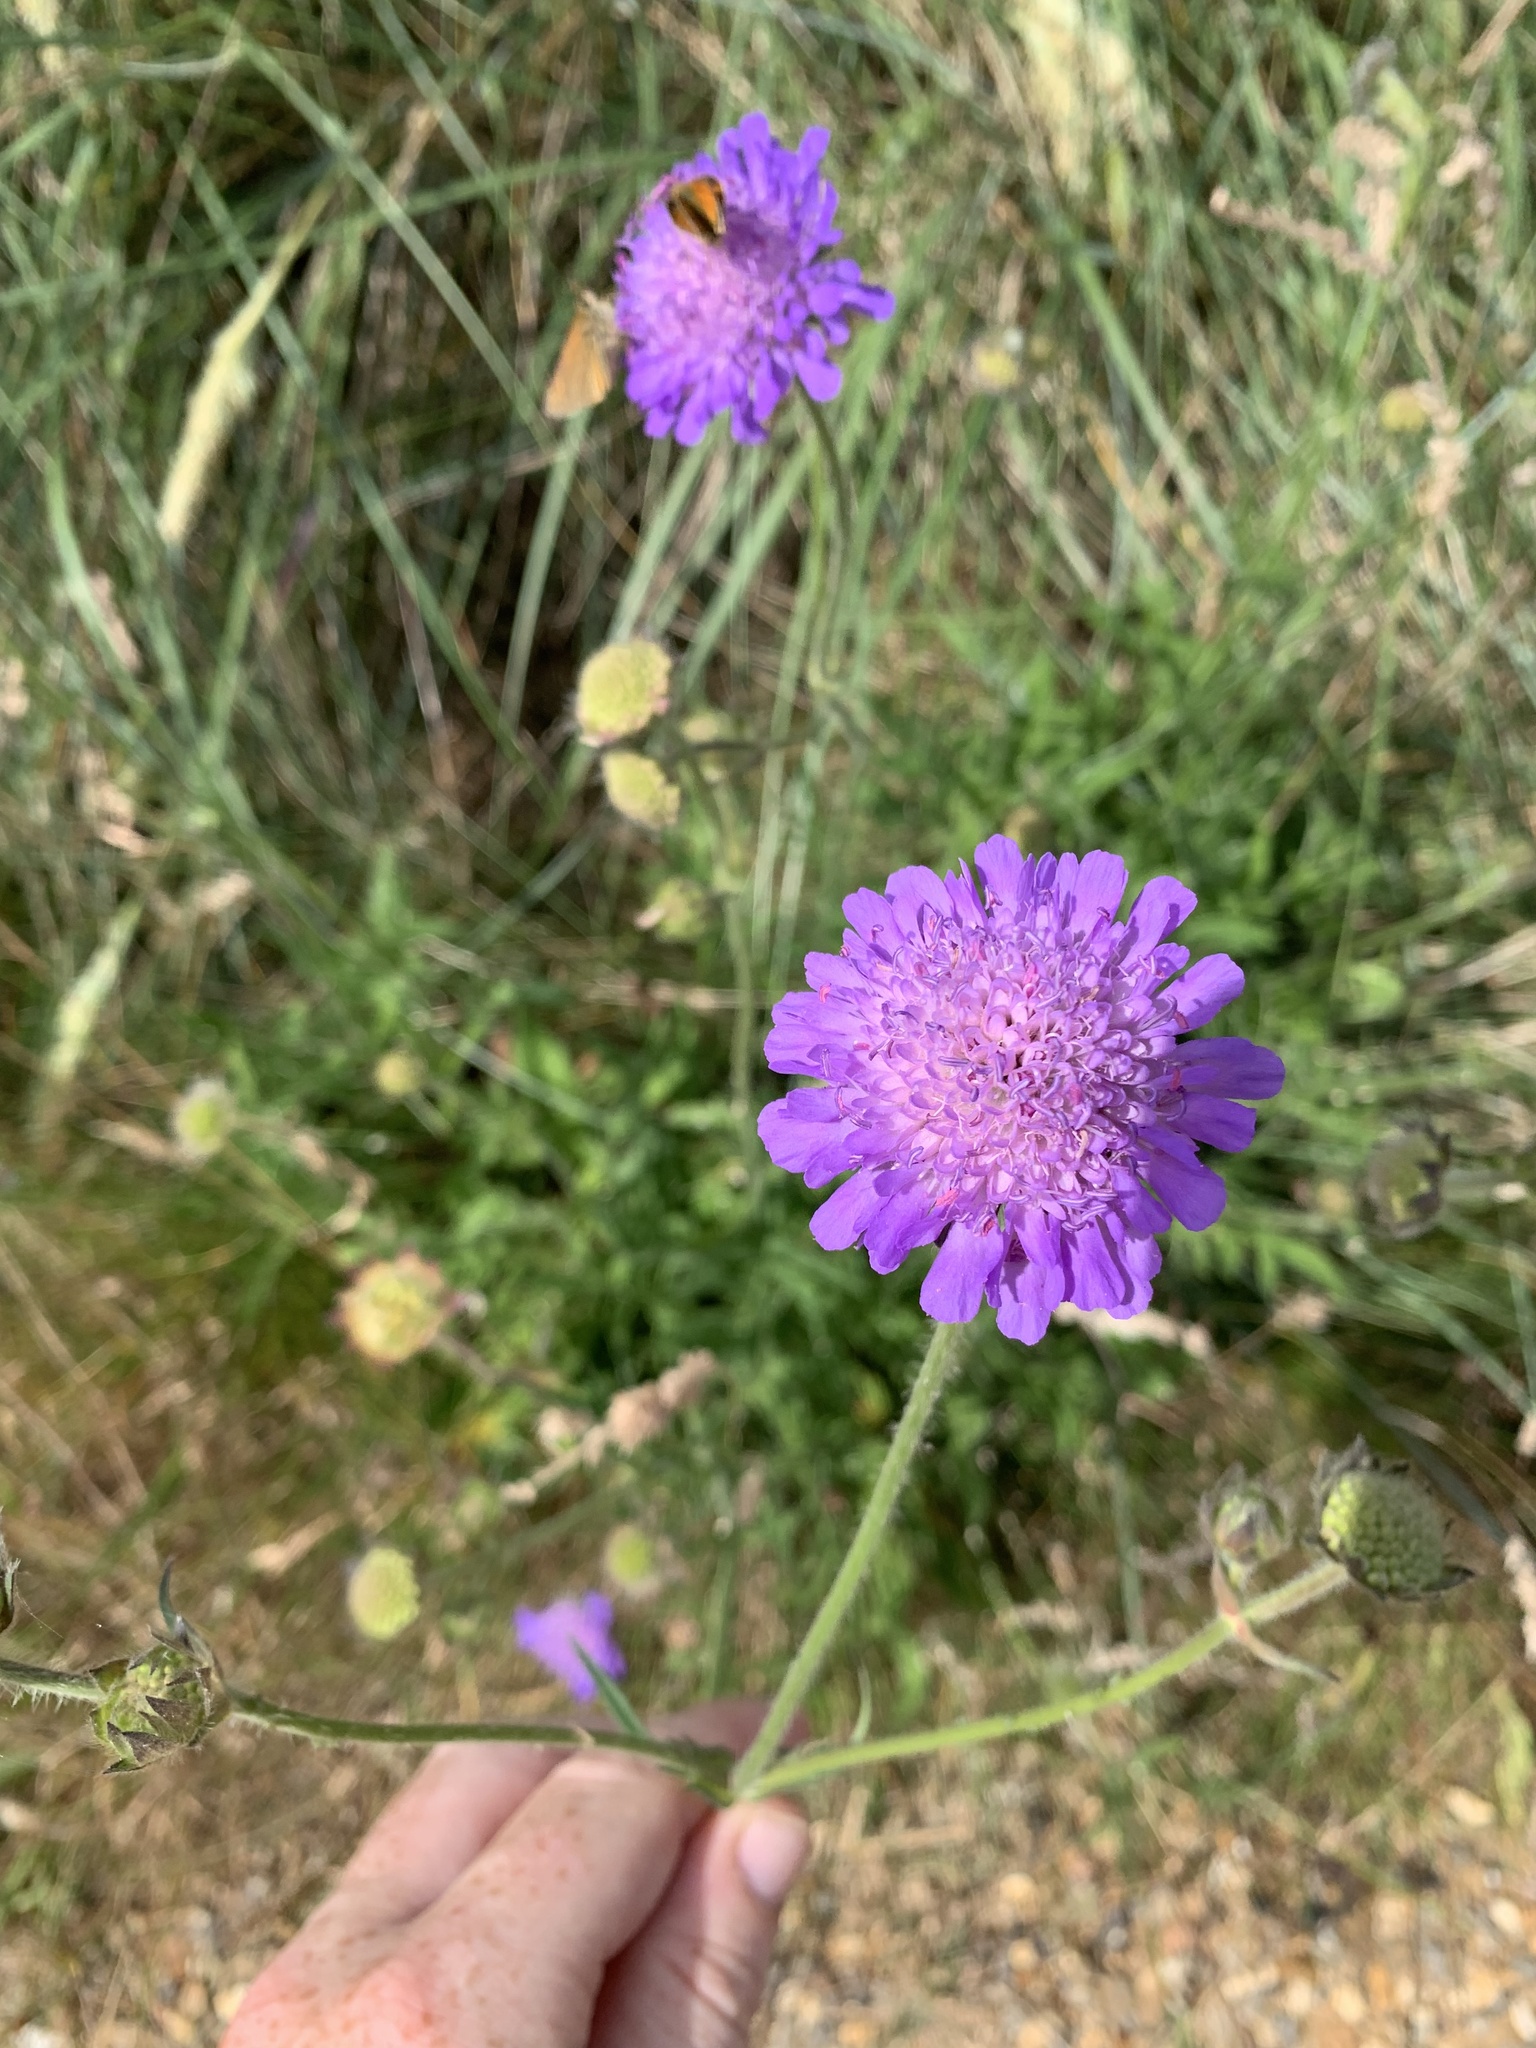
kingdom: Plantae
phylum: Tracheophyta
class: Magnoliopsida
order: Dipsacales
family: Caprifoliaceae
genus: Knautia
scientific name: Knautia arvensis
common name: Field scabiosa
